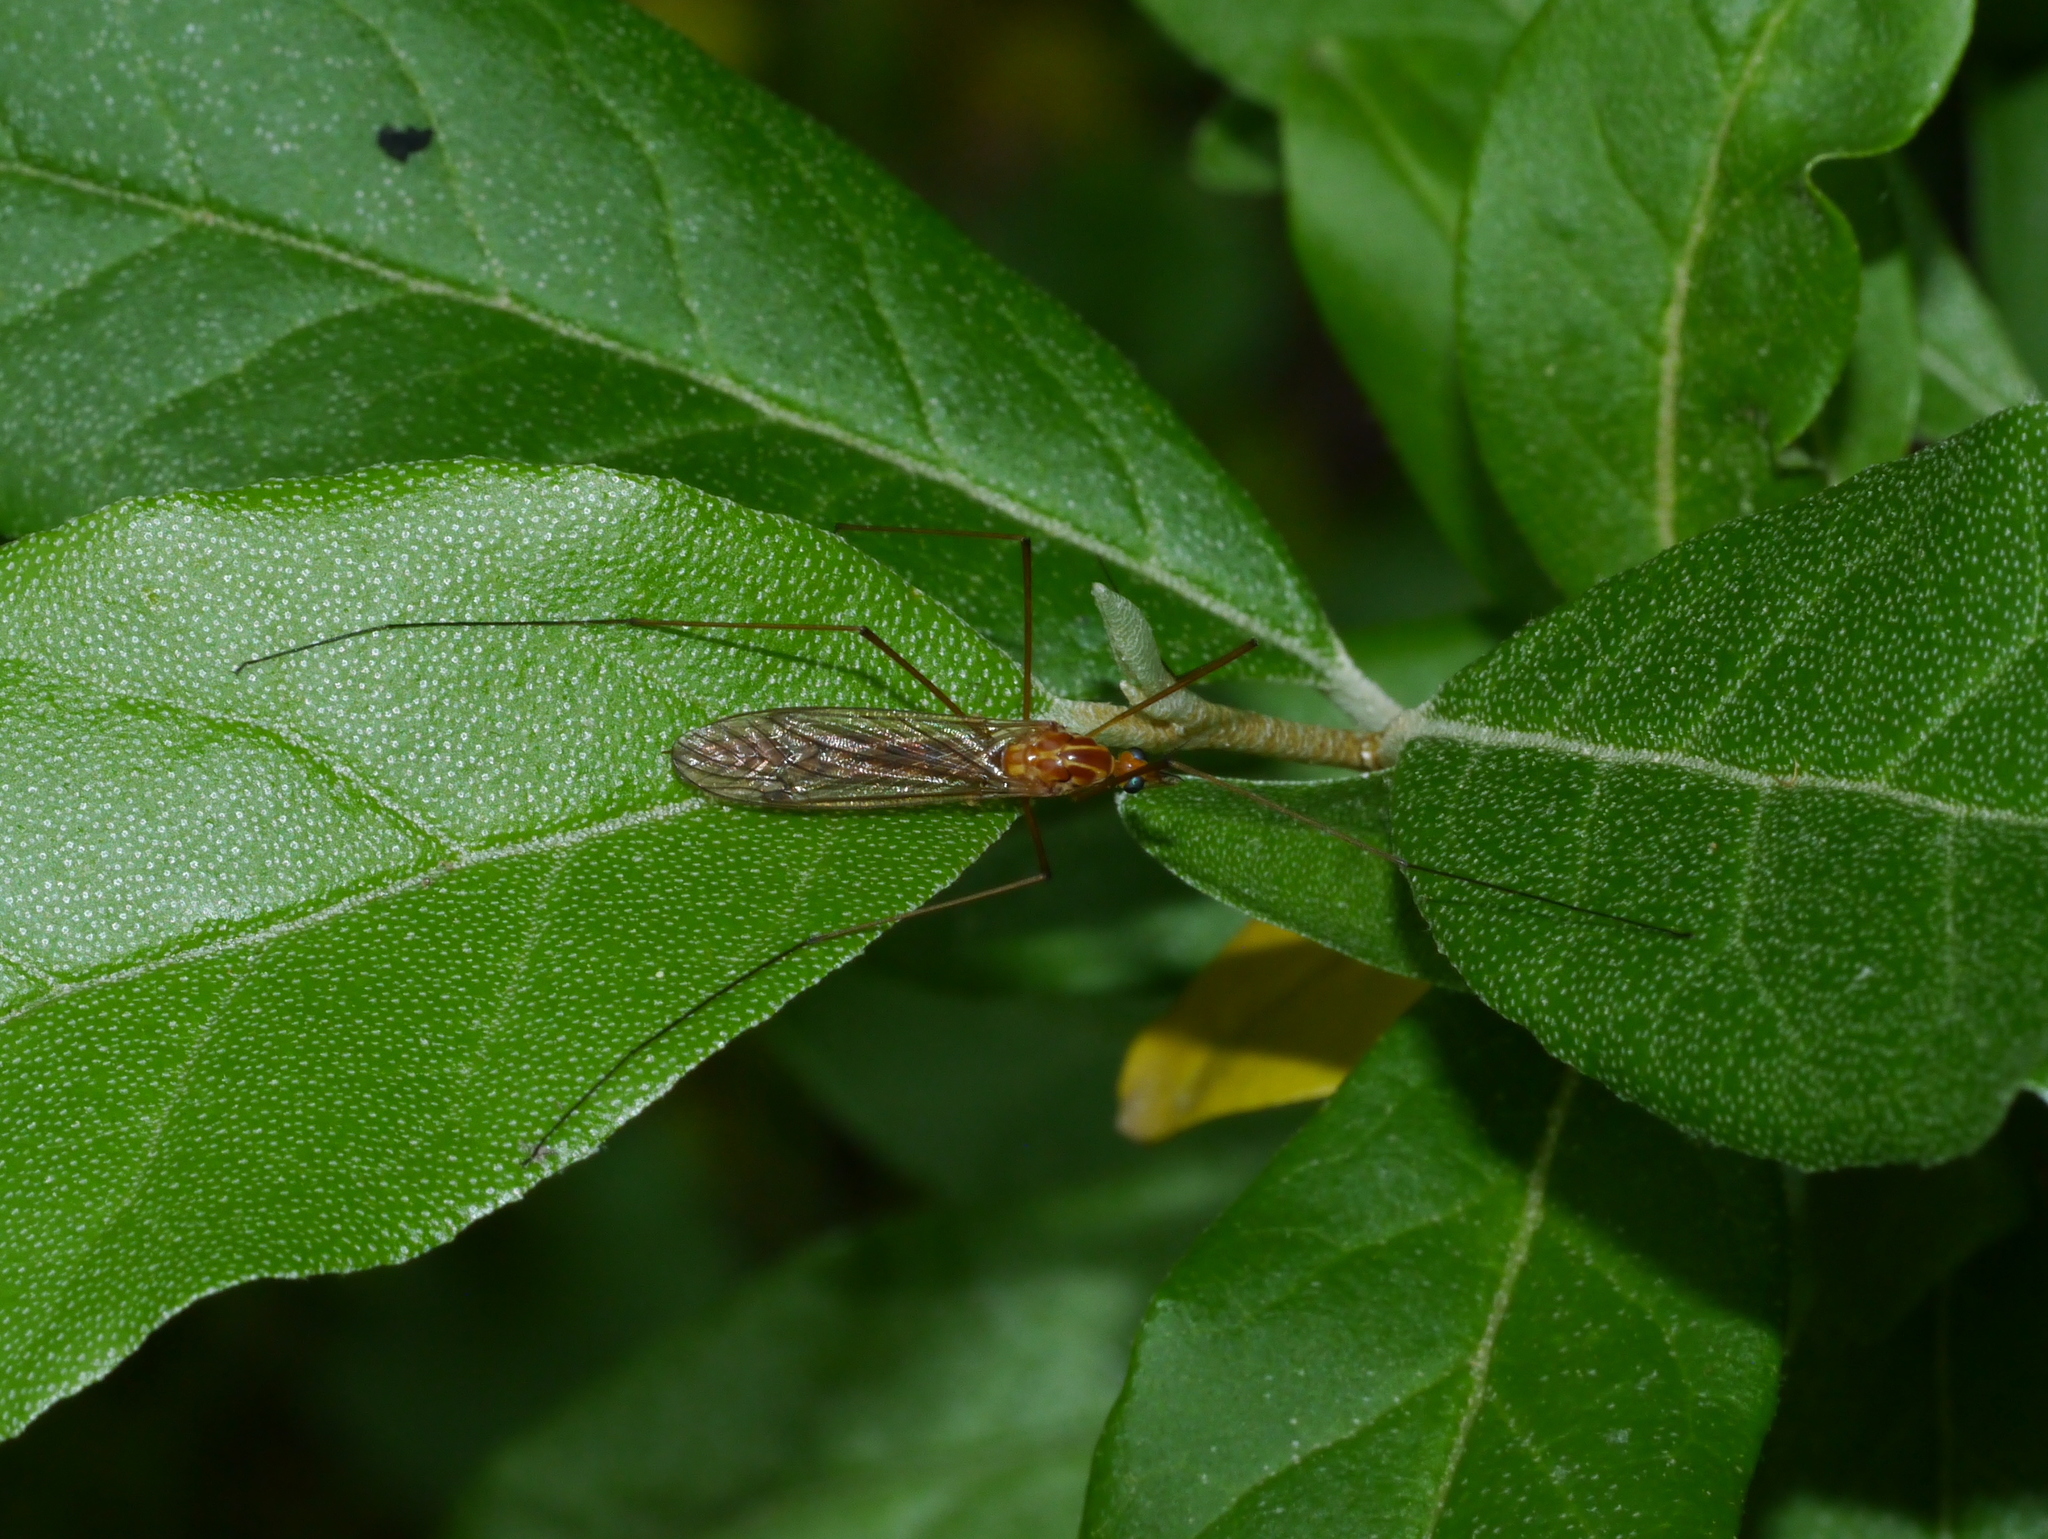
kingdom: Animalia
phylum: Arthropoda
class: Insecta
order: Diptera
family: Tipulidae
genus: Nephrotoma
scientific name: Nephrotoma ferruginea
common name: Ferruginous tiger crane fly
